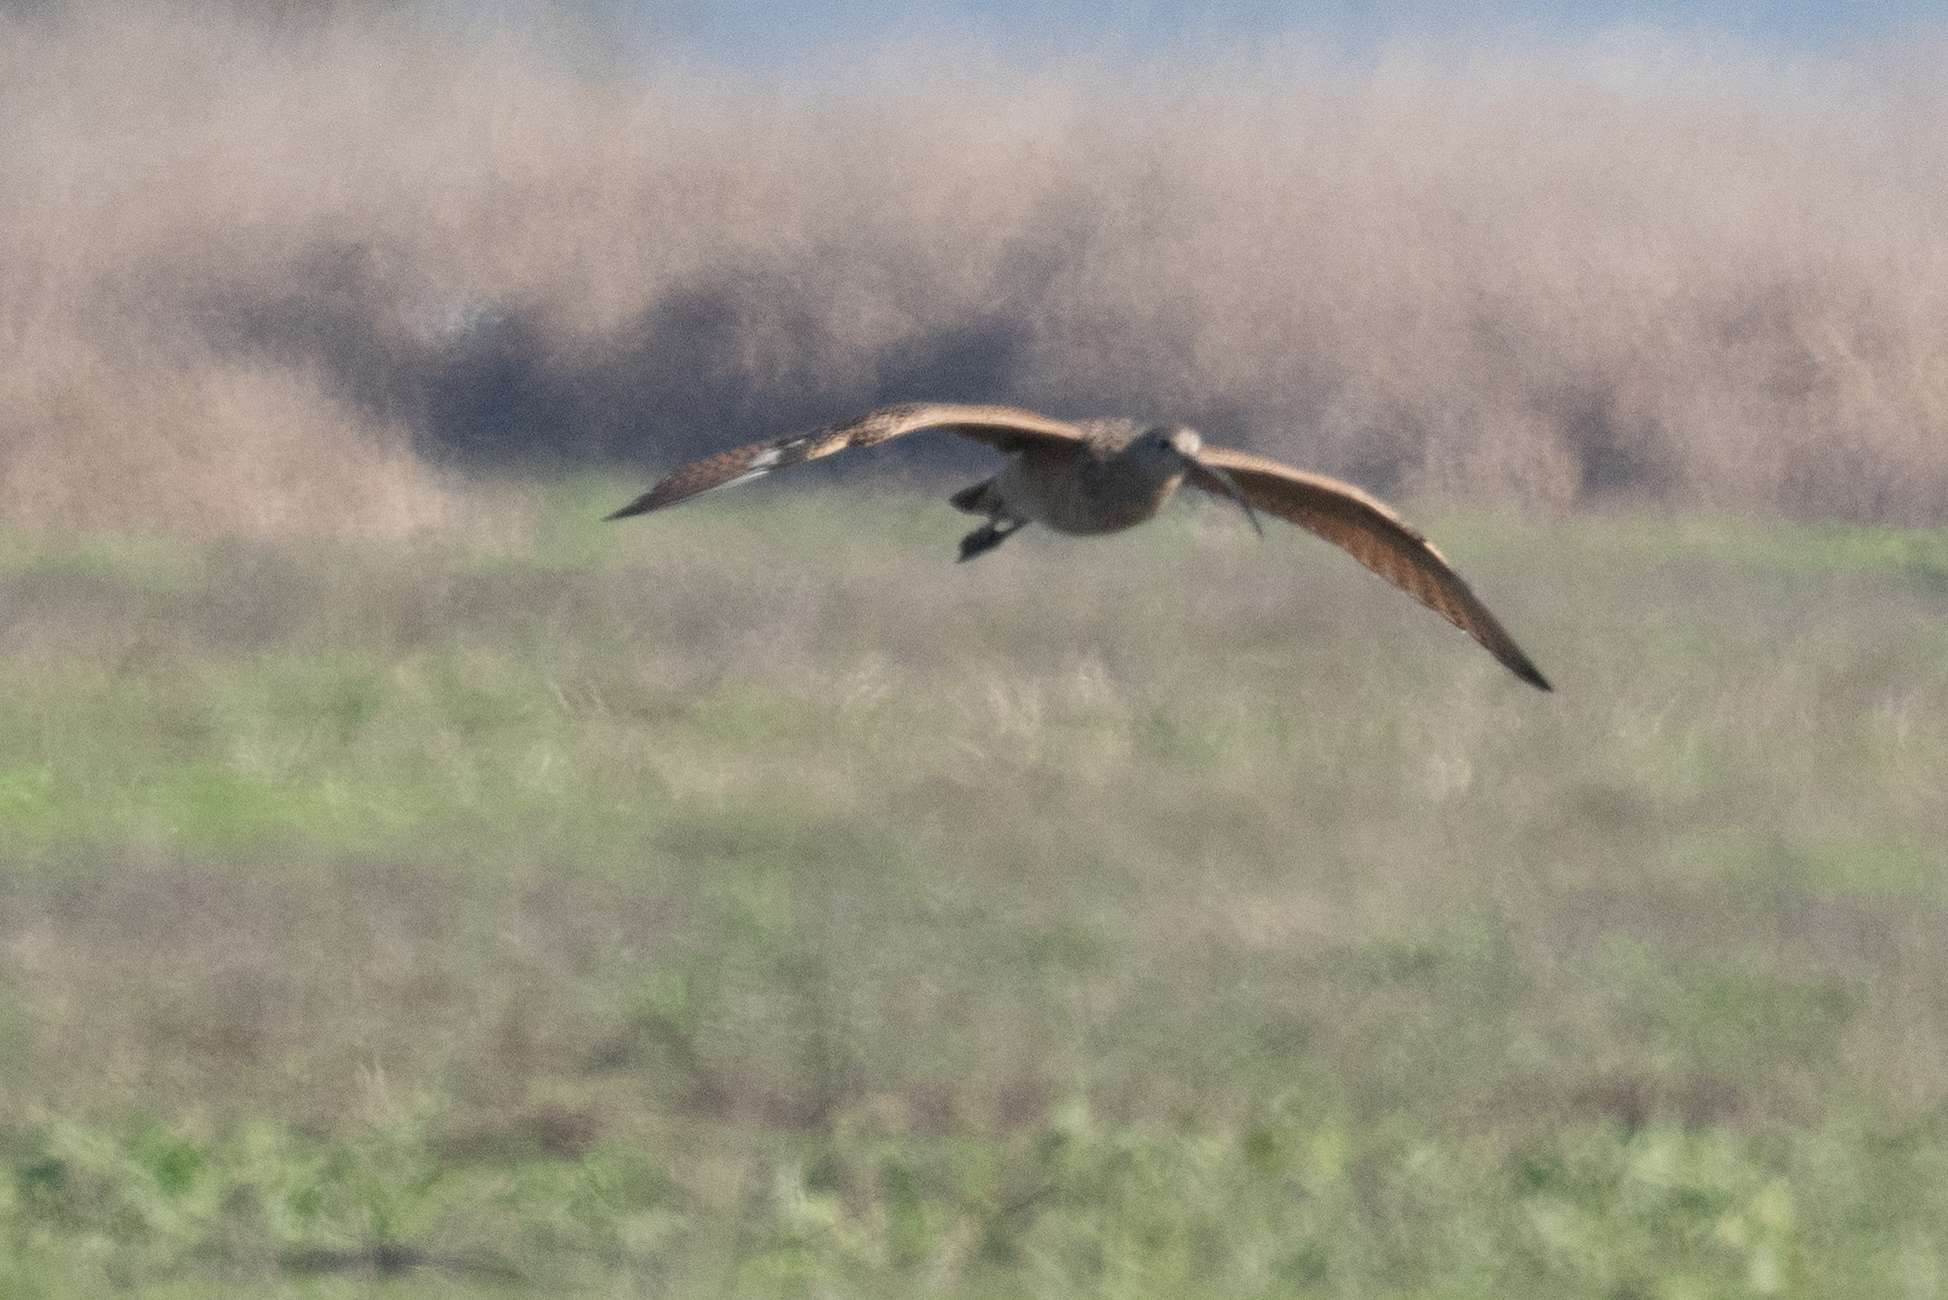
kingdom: Animalia
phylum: Chordata
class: Aves
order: Charadriiformes
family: Scolopacidae
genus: Numenius
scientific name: Numenius americanus
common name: Long-billed curlew
